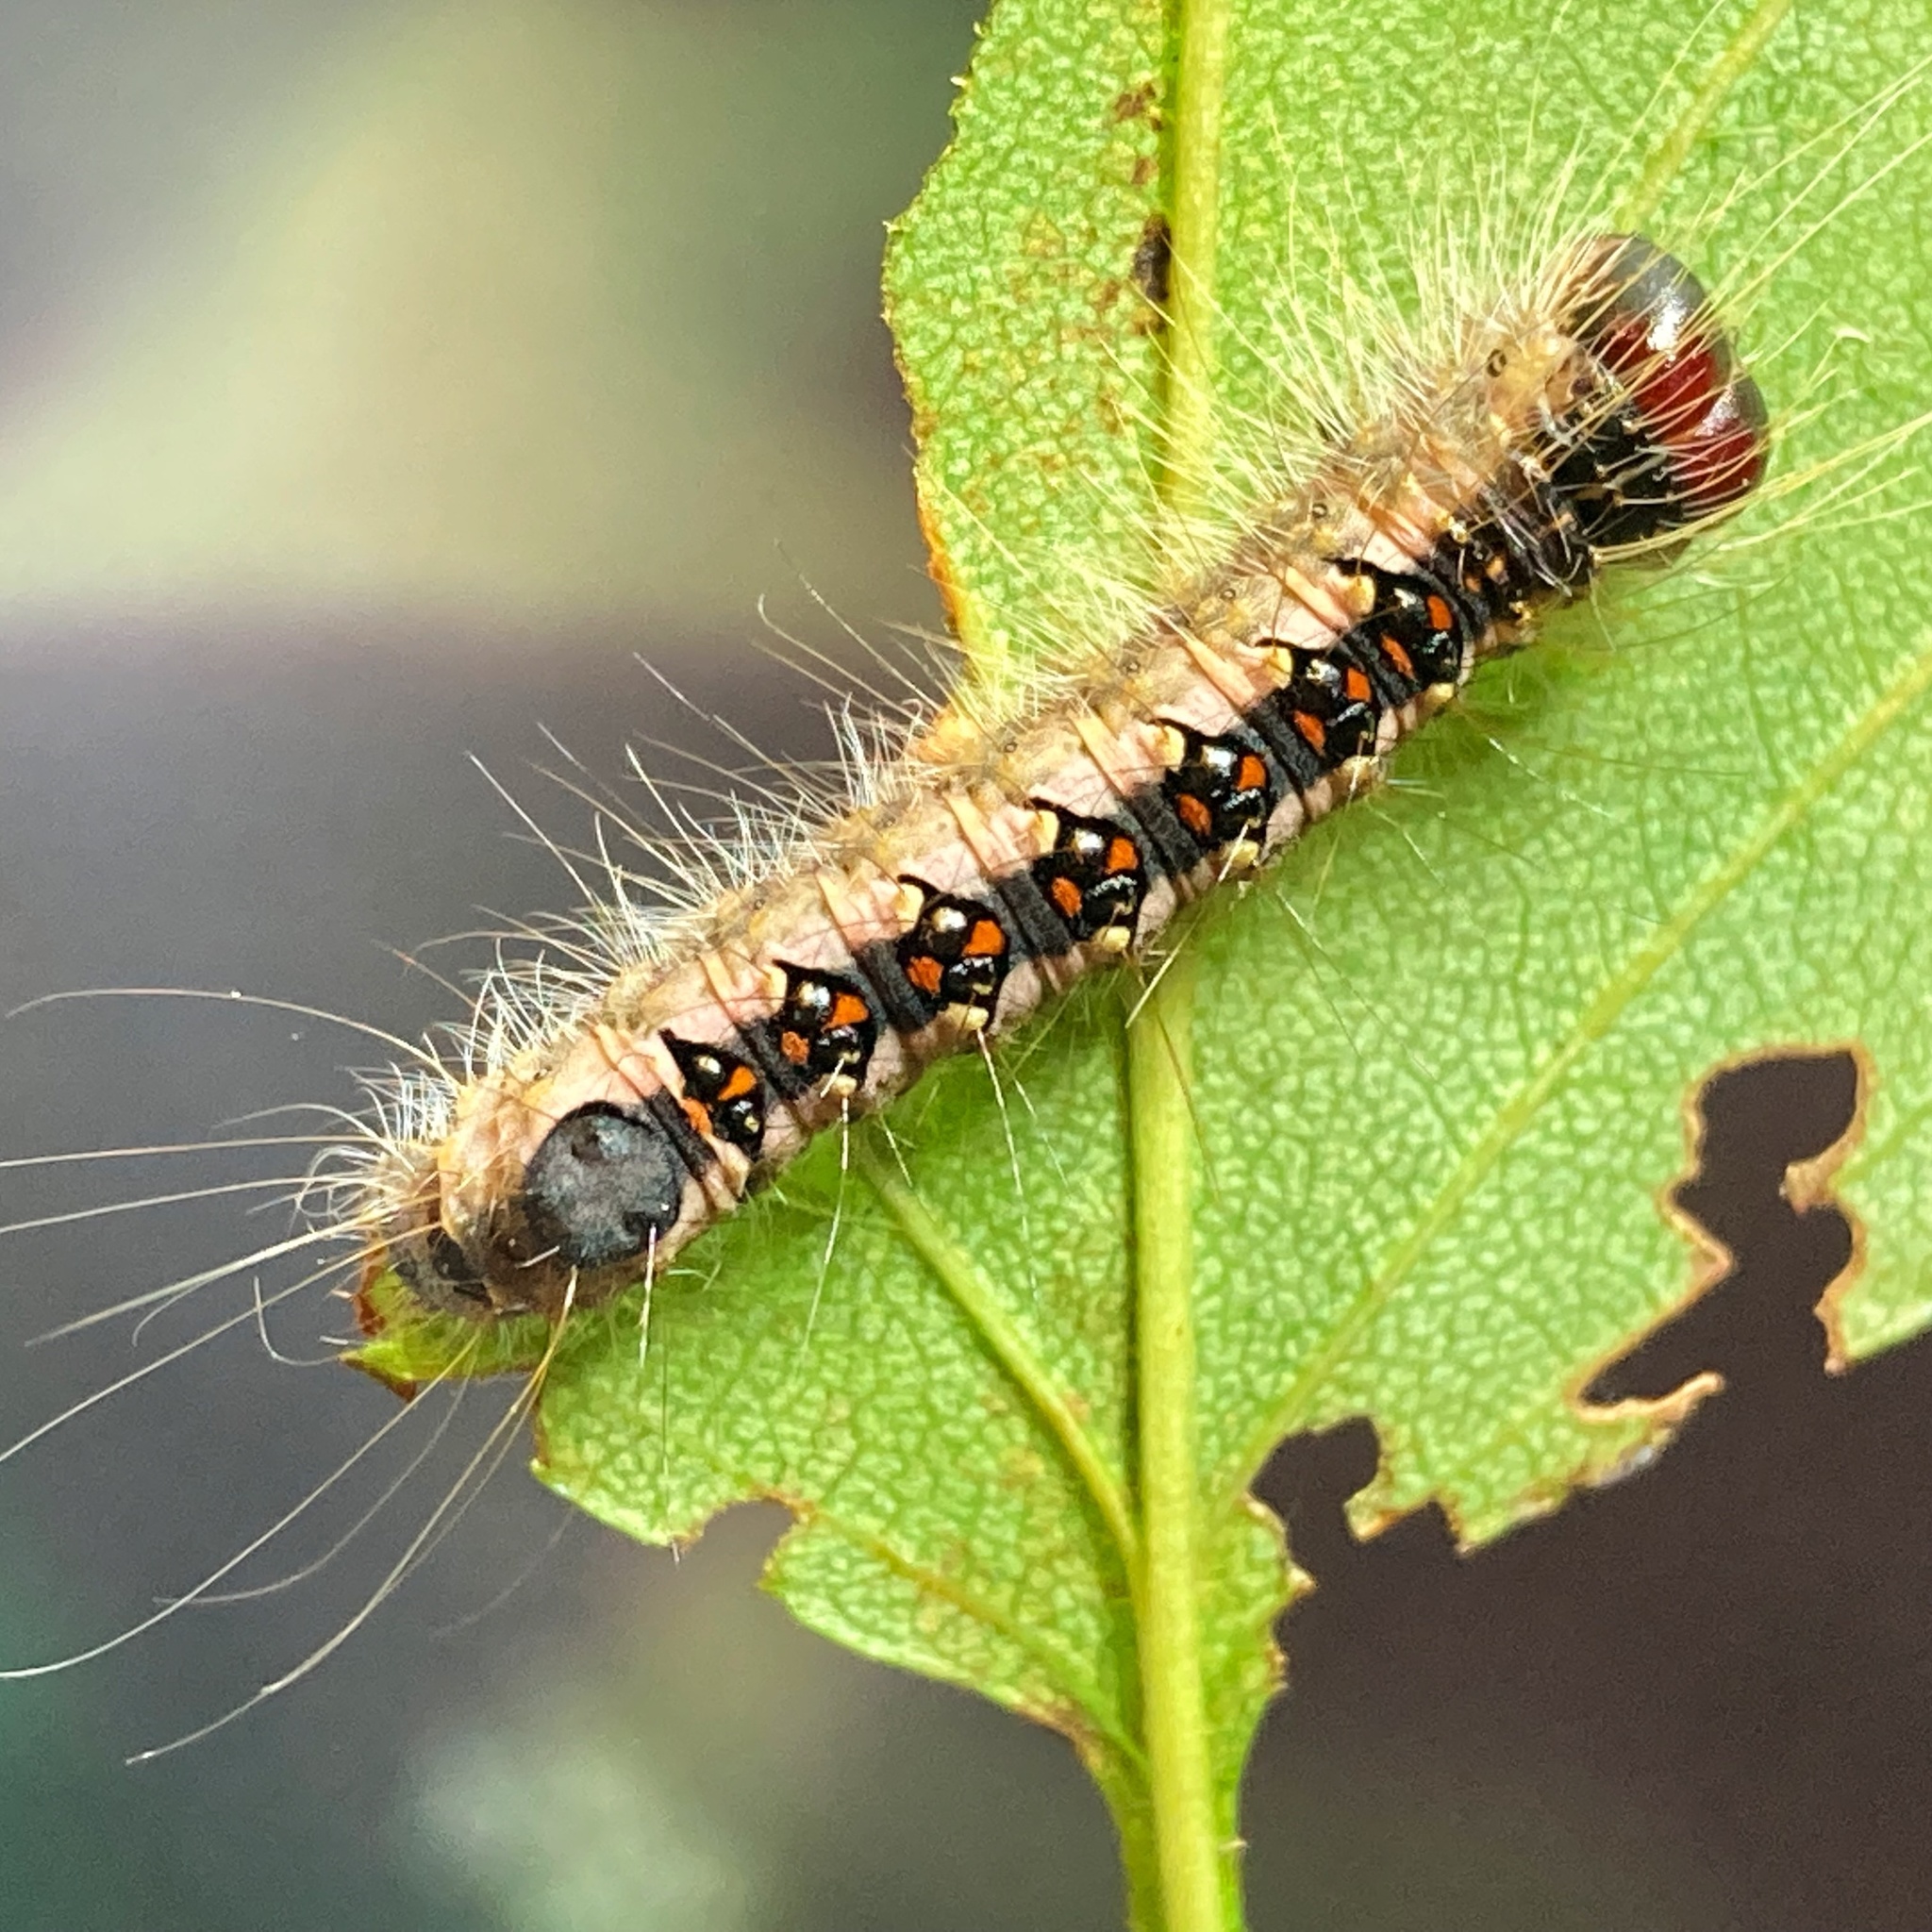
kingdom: Animalia
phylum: Arthropoda
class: Insecta
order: Lepidoptera
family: Noctuidae
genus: Acronicta
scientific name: Acronicta interrupta
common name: Interrupted dagger
